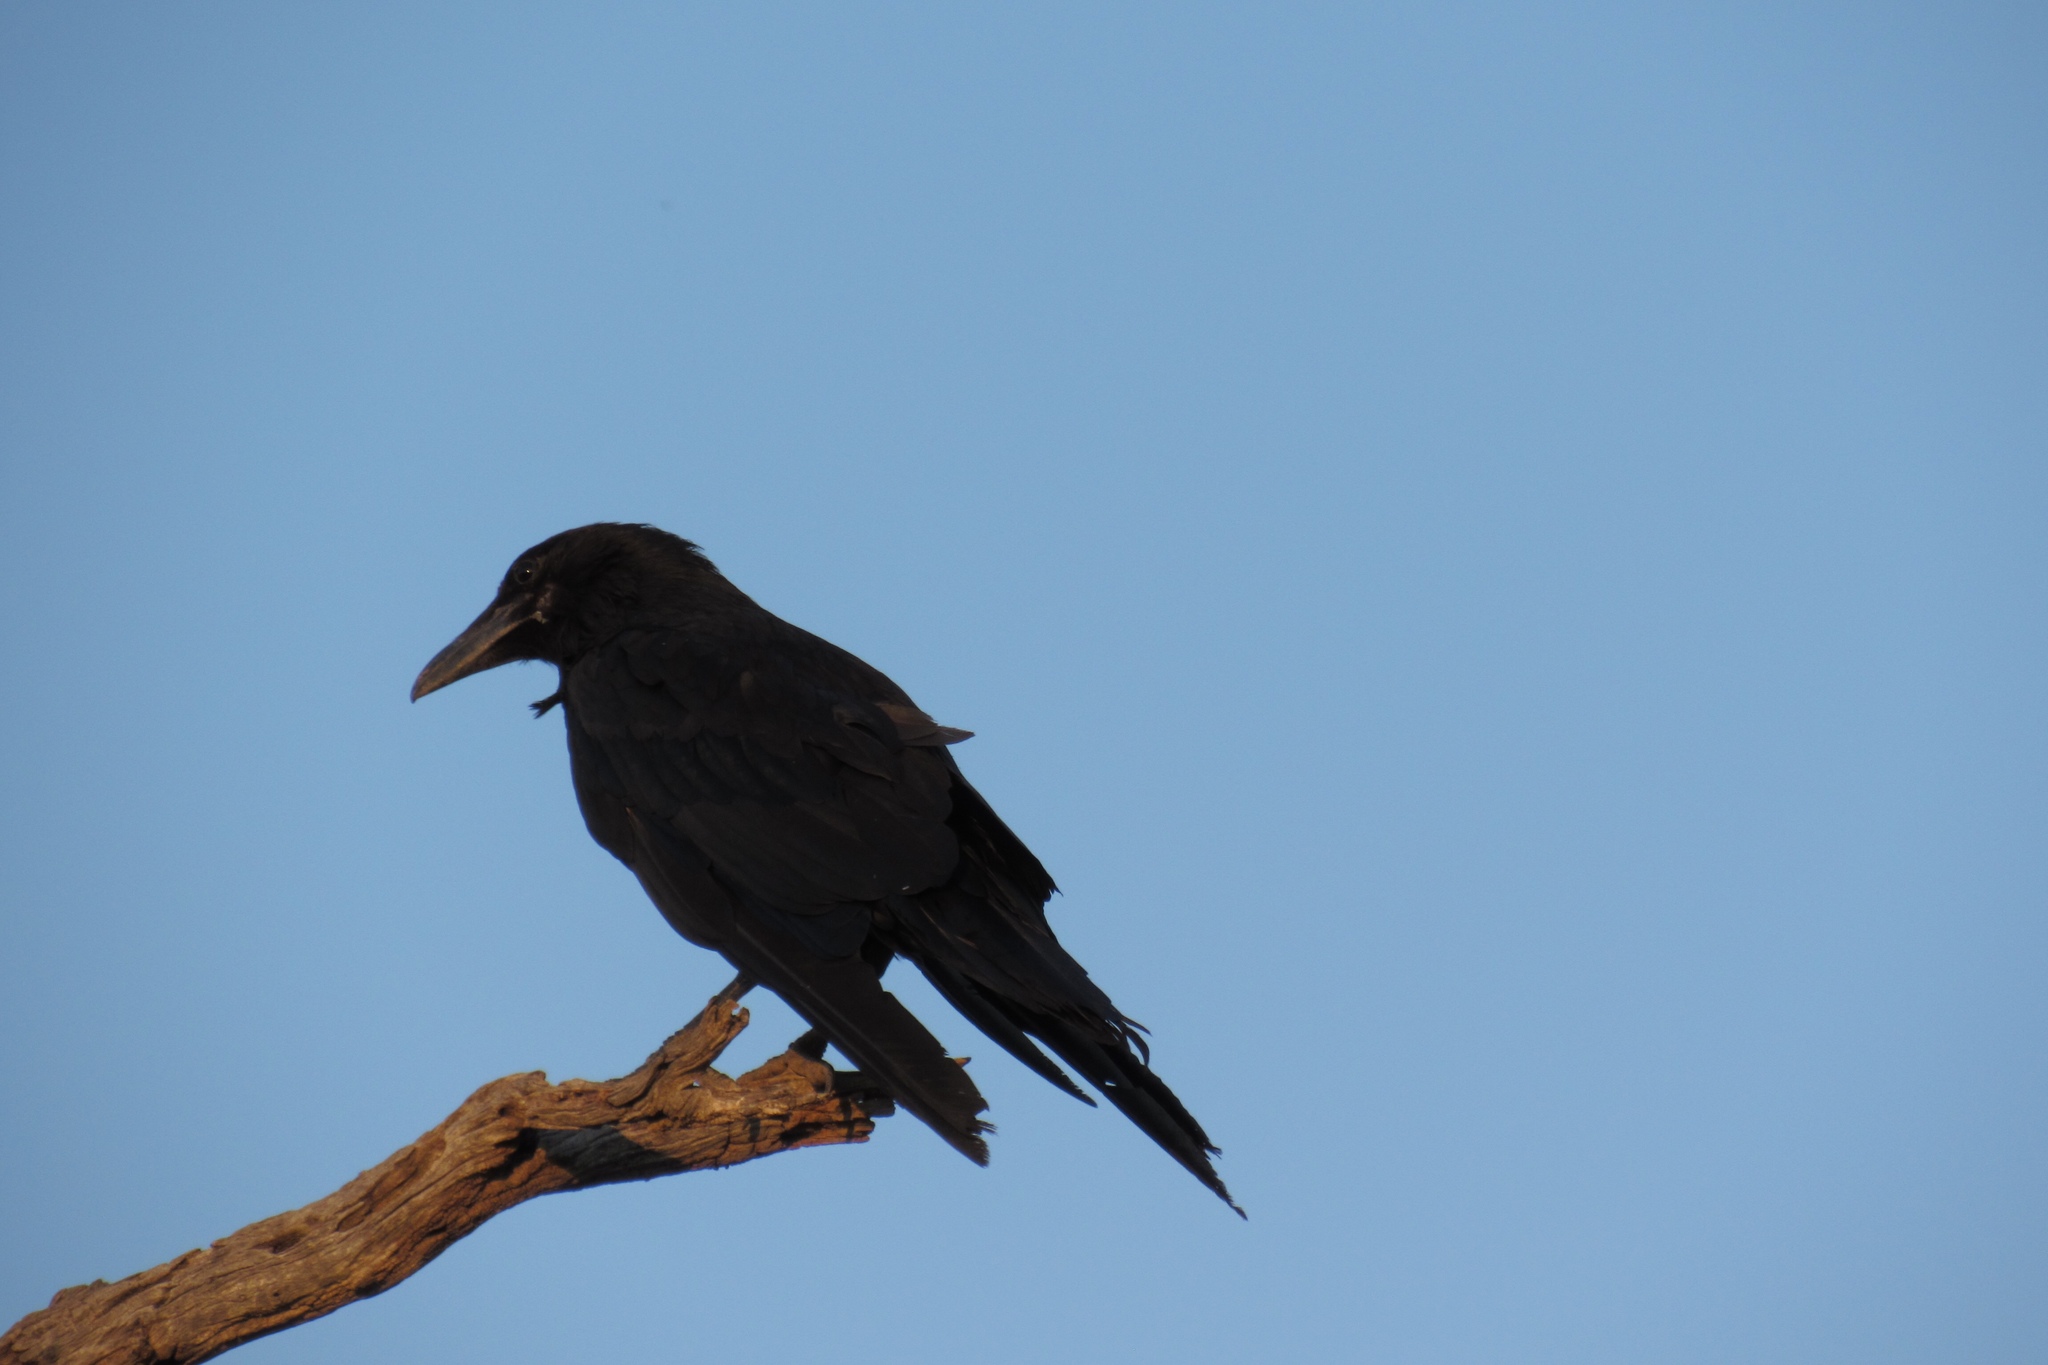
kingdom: Animalia
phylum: Chordata
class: Aves
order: Passeriformes
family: Corvidae
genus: Corvus
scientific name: Corvus corax
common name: Common raven
